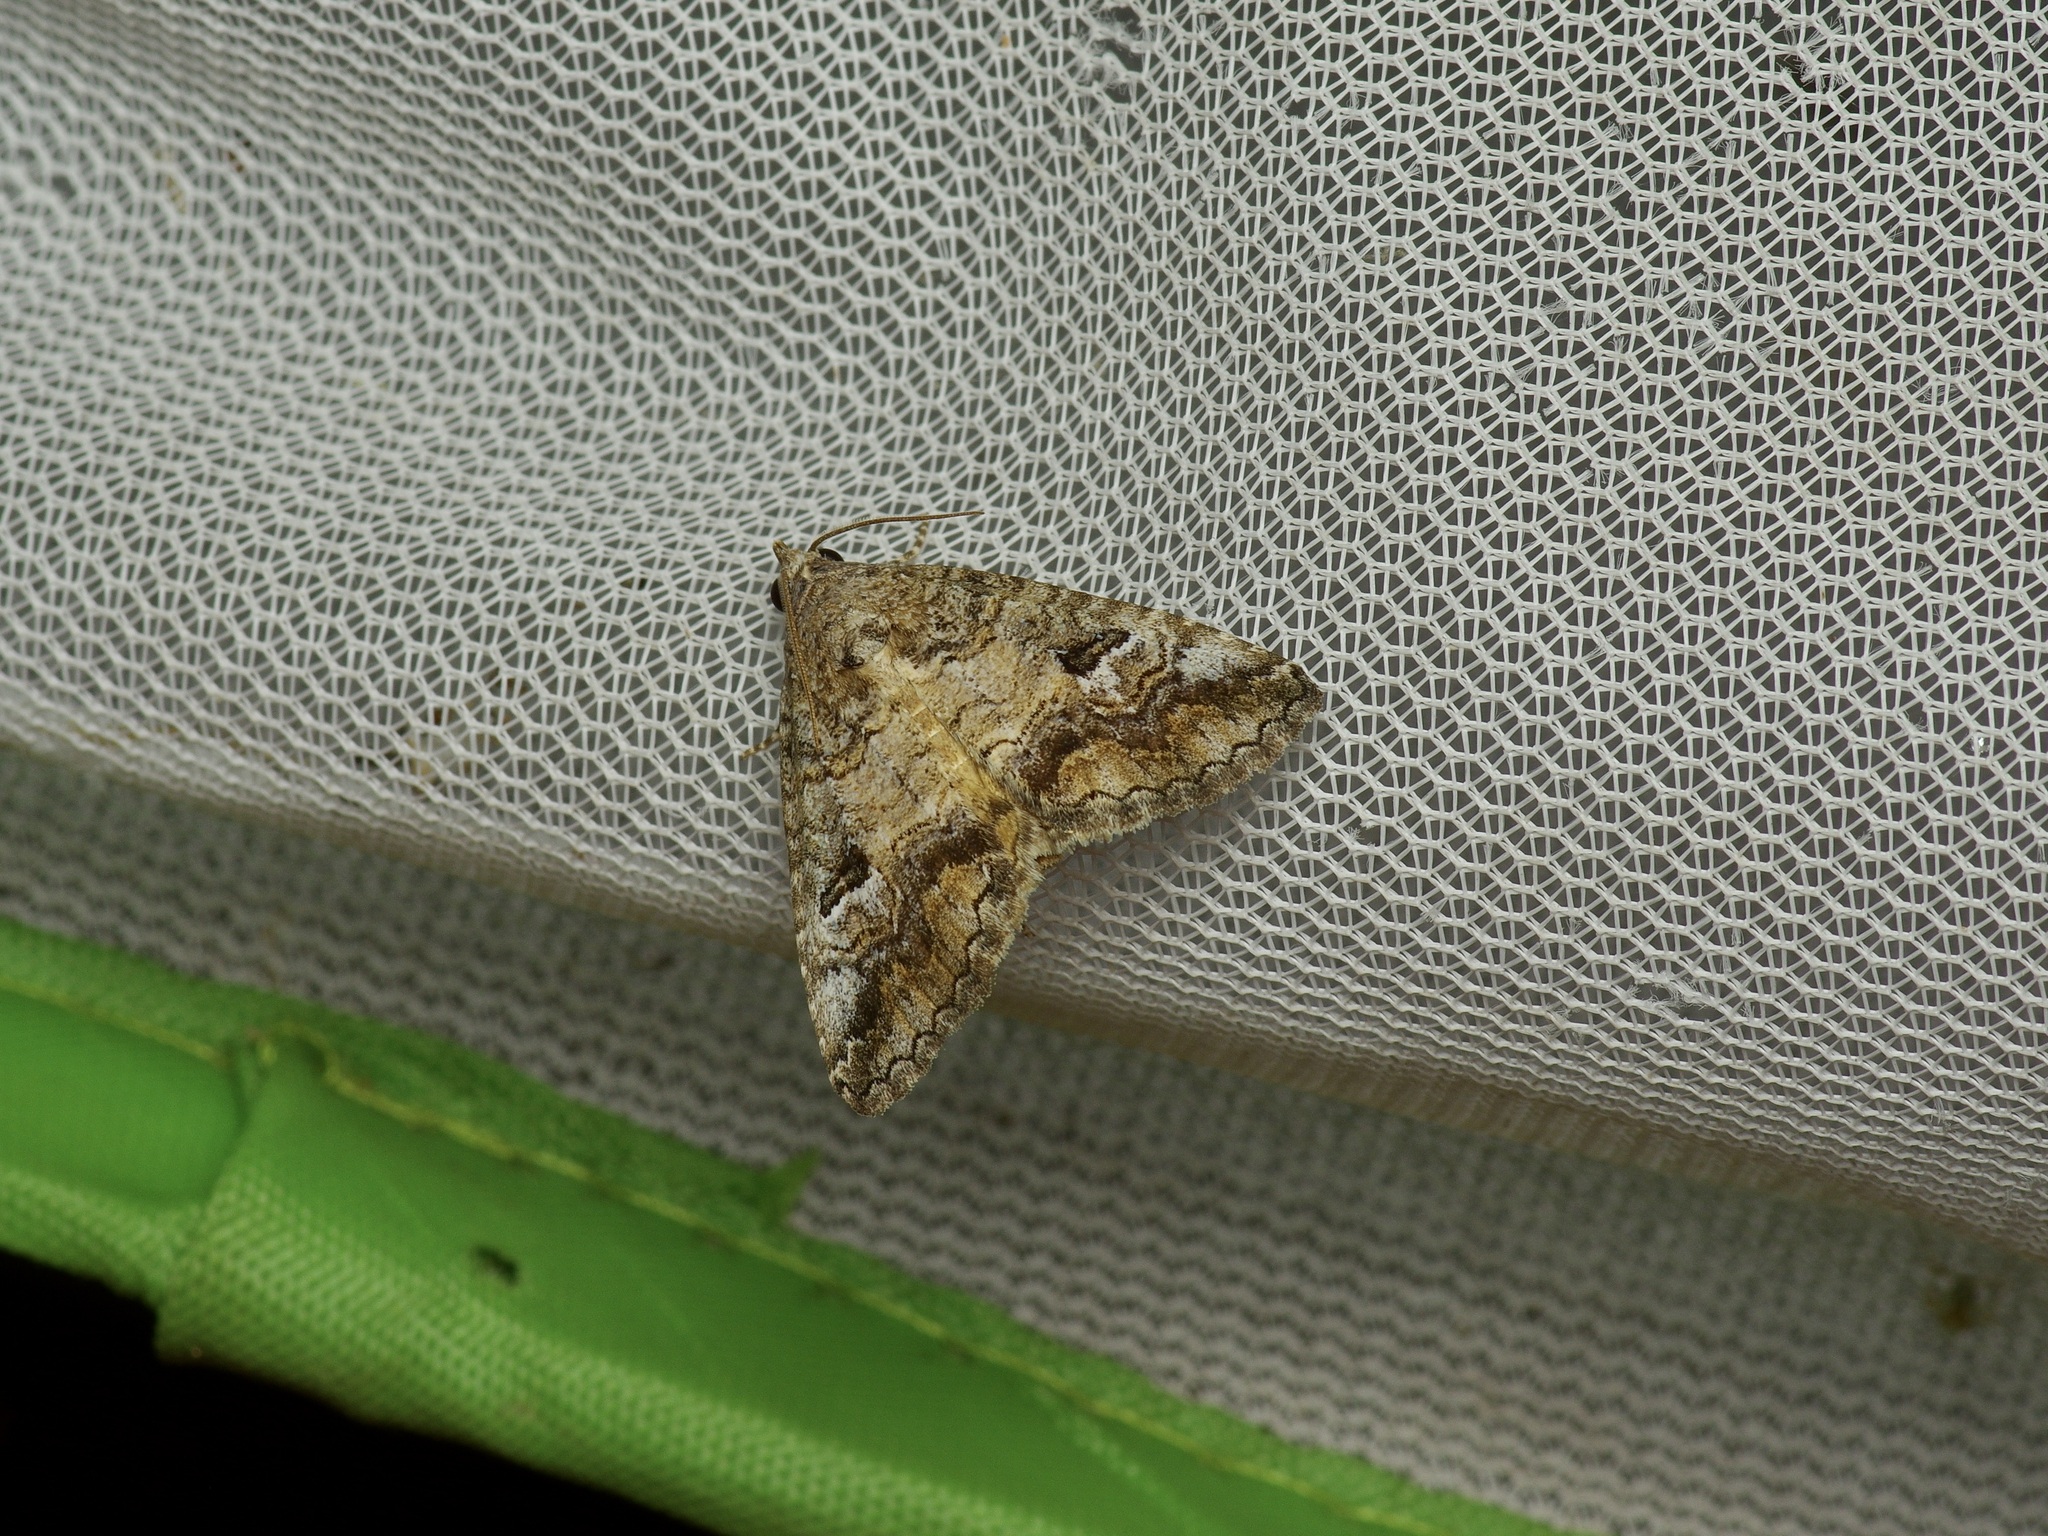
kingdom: Animalia
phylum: Arthropoda
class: Insecta
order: Lepidoptera
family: Erebidae
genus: Eubolina
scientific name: Eubolina impartialis
